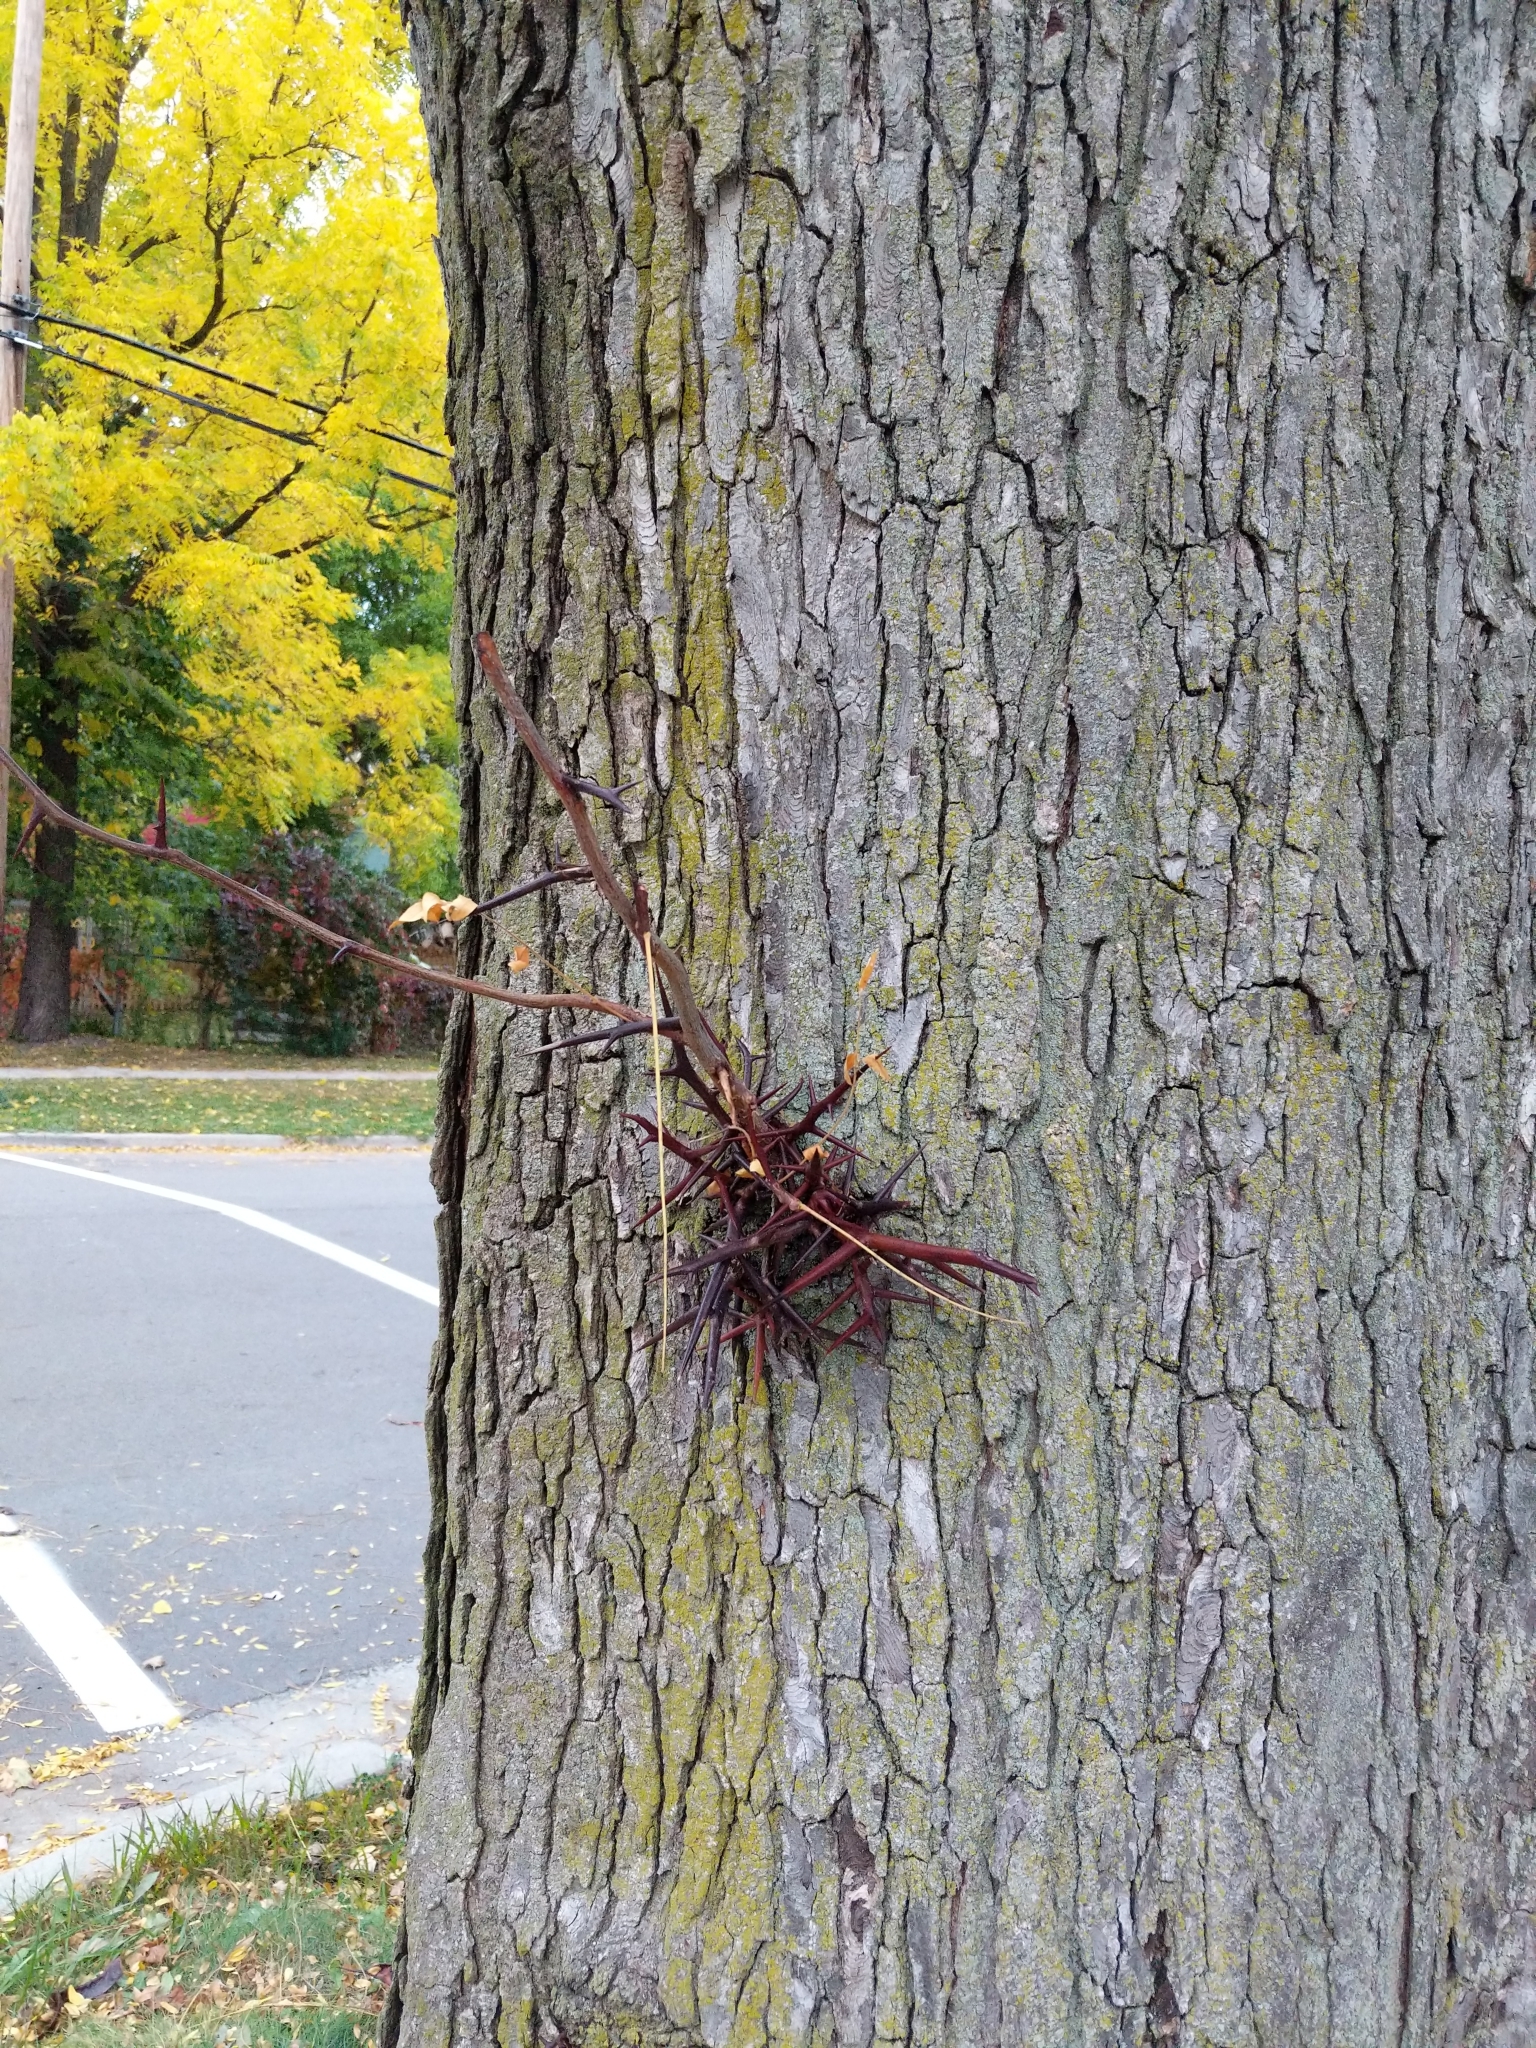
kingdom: Plantae
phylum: Tracheophyta
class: Magnoliopsida
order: Fabales
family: Fabaceae
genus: Gleditsia
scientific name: Gleditsia triacanthos
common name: Common honeylocust
